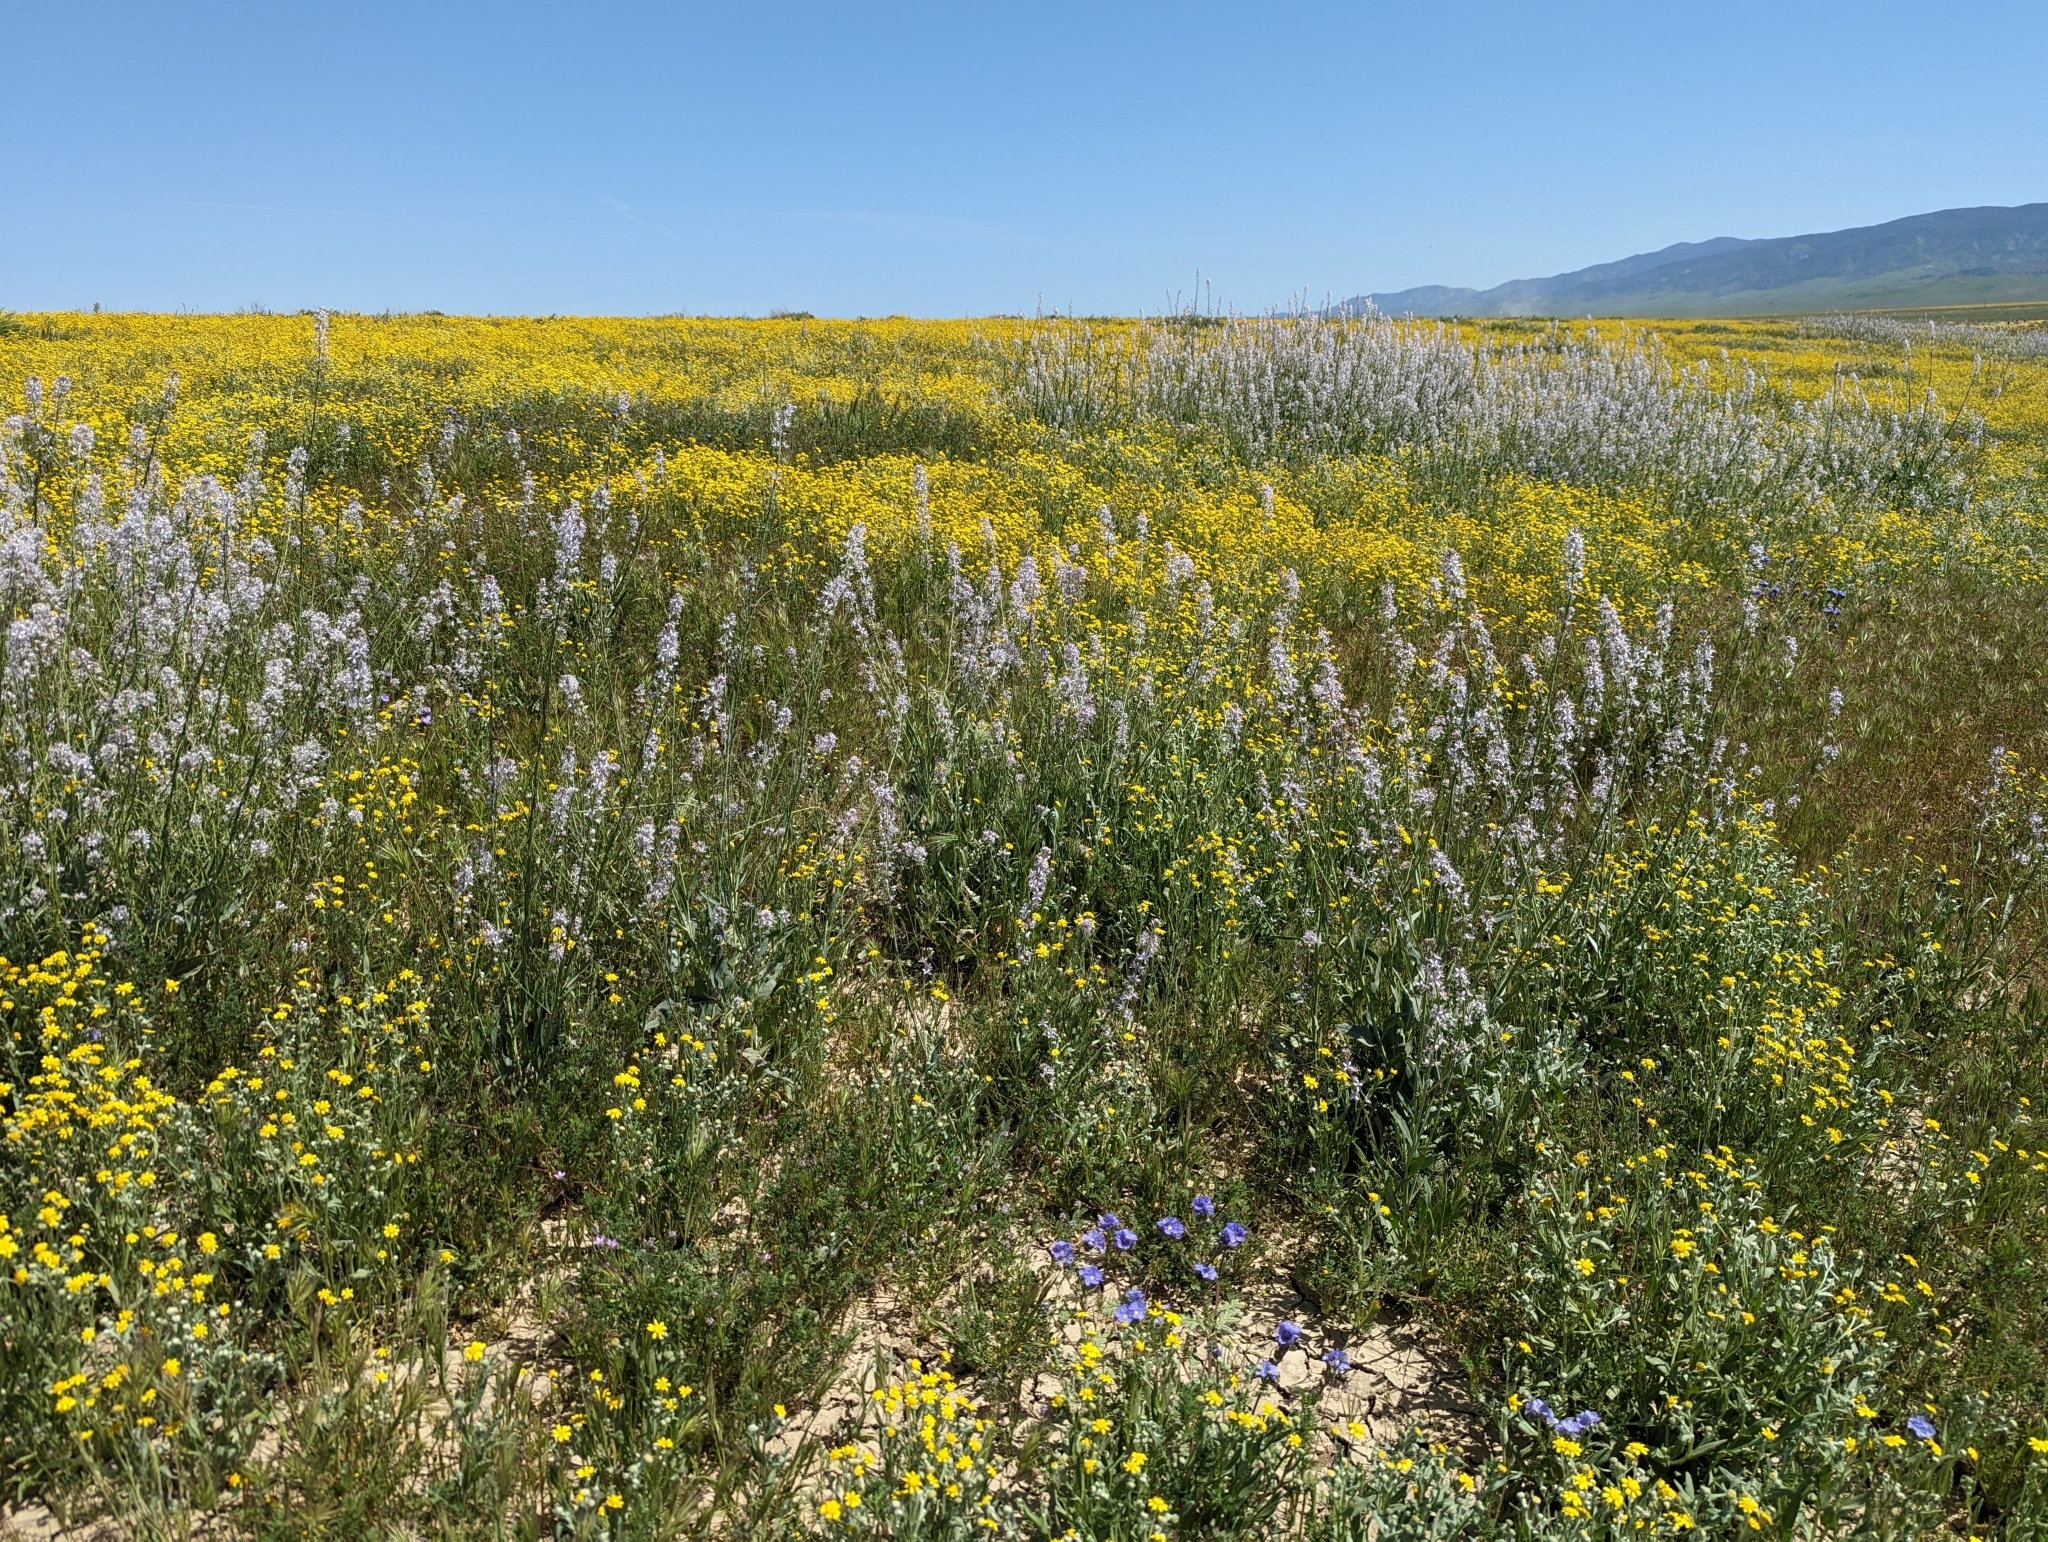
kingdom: Plantae
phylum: Tracheophyta
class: Magnoliopsida
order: Brassicales
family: Brassicaceae
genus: Streptanthus
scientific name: Streptanthus anceps
